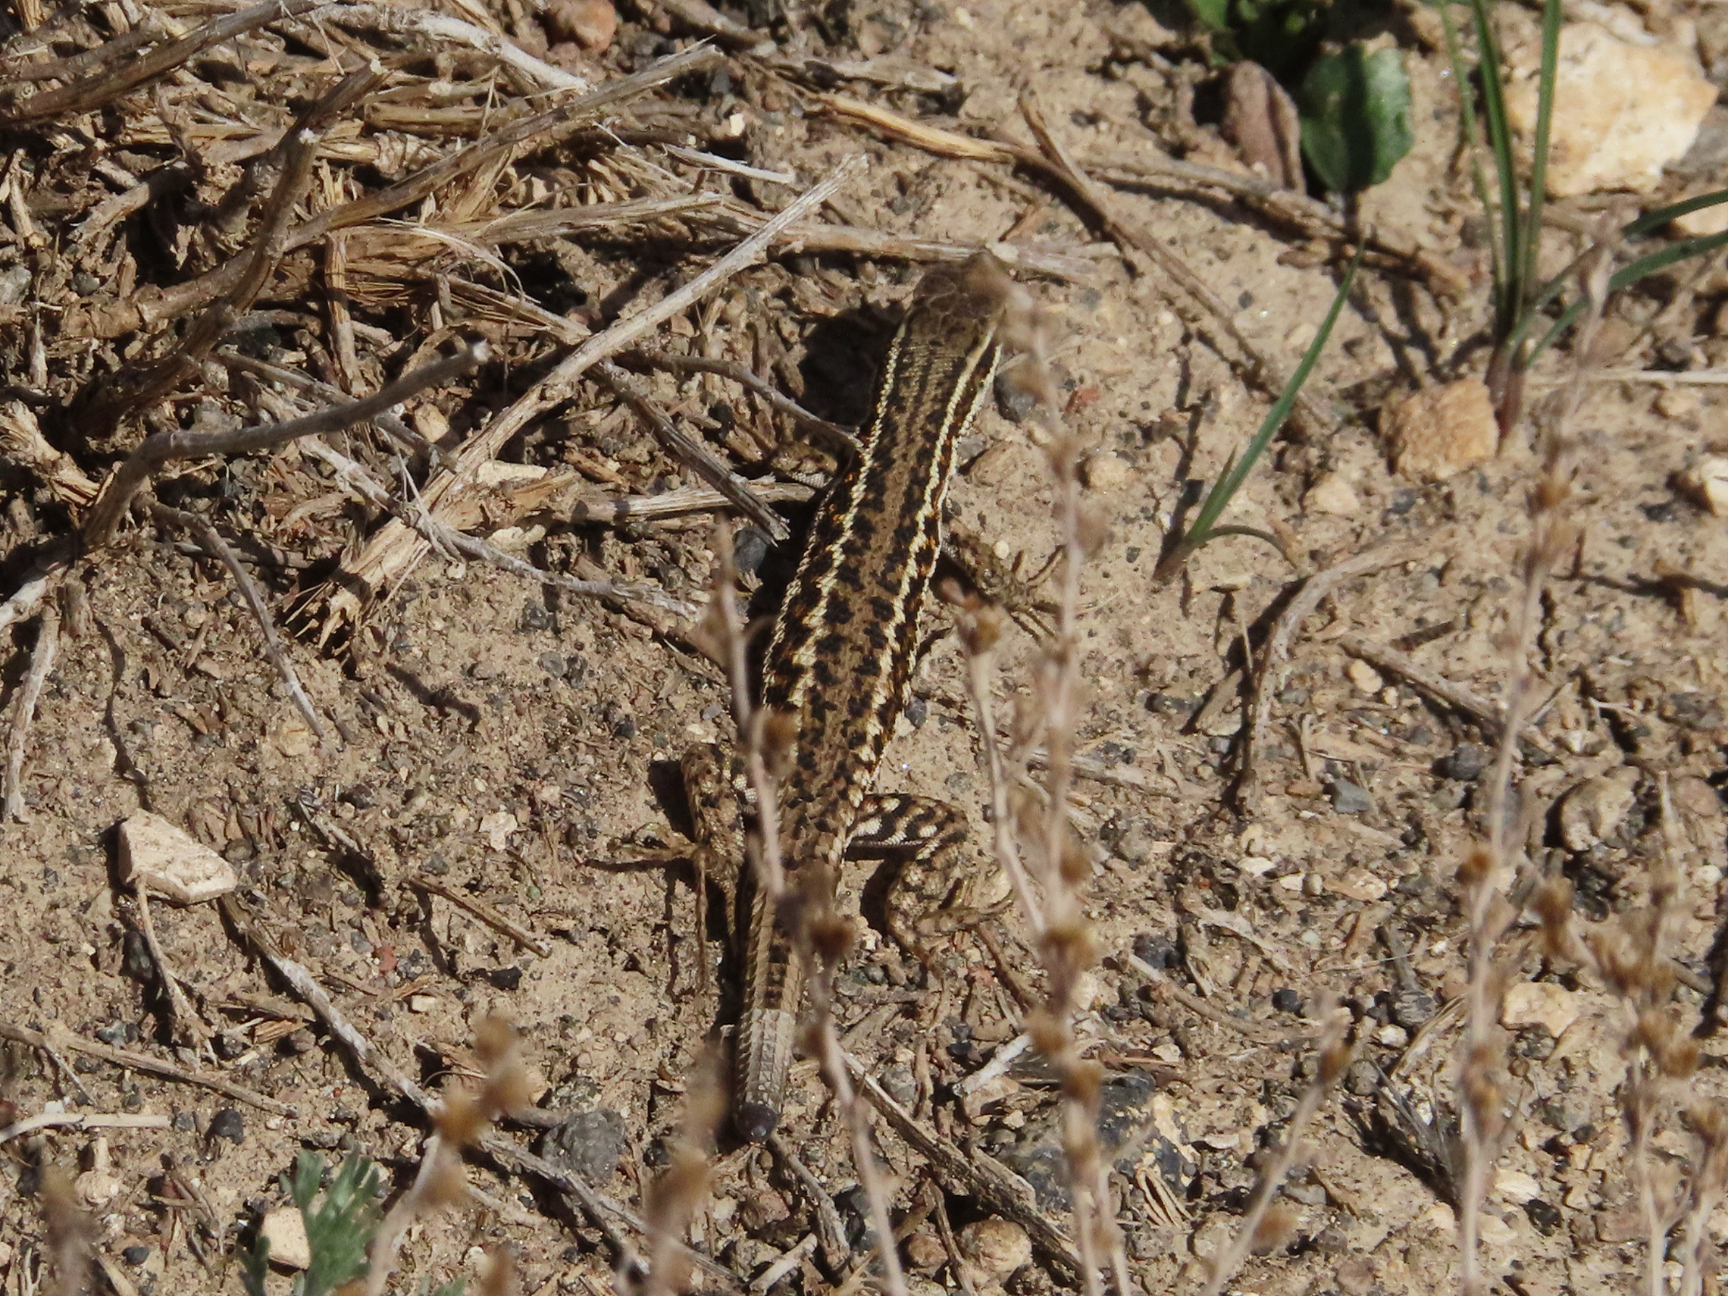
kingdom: Animalia
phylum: Chordata
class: Squamata
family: Lacertidae
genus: Ophisops
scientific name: Ophisops elegans
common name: Snake-eyed lizard
